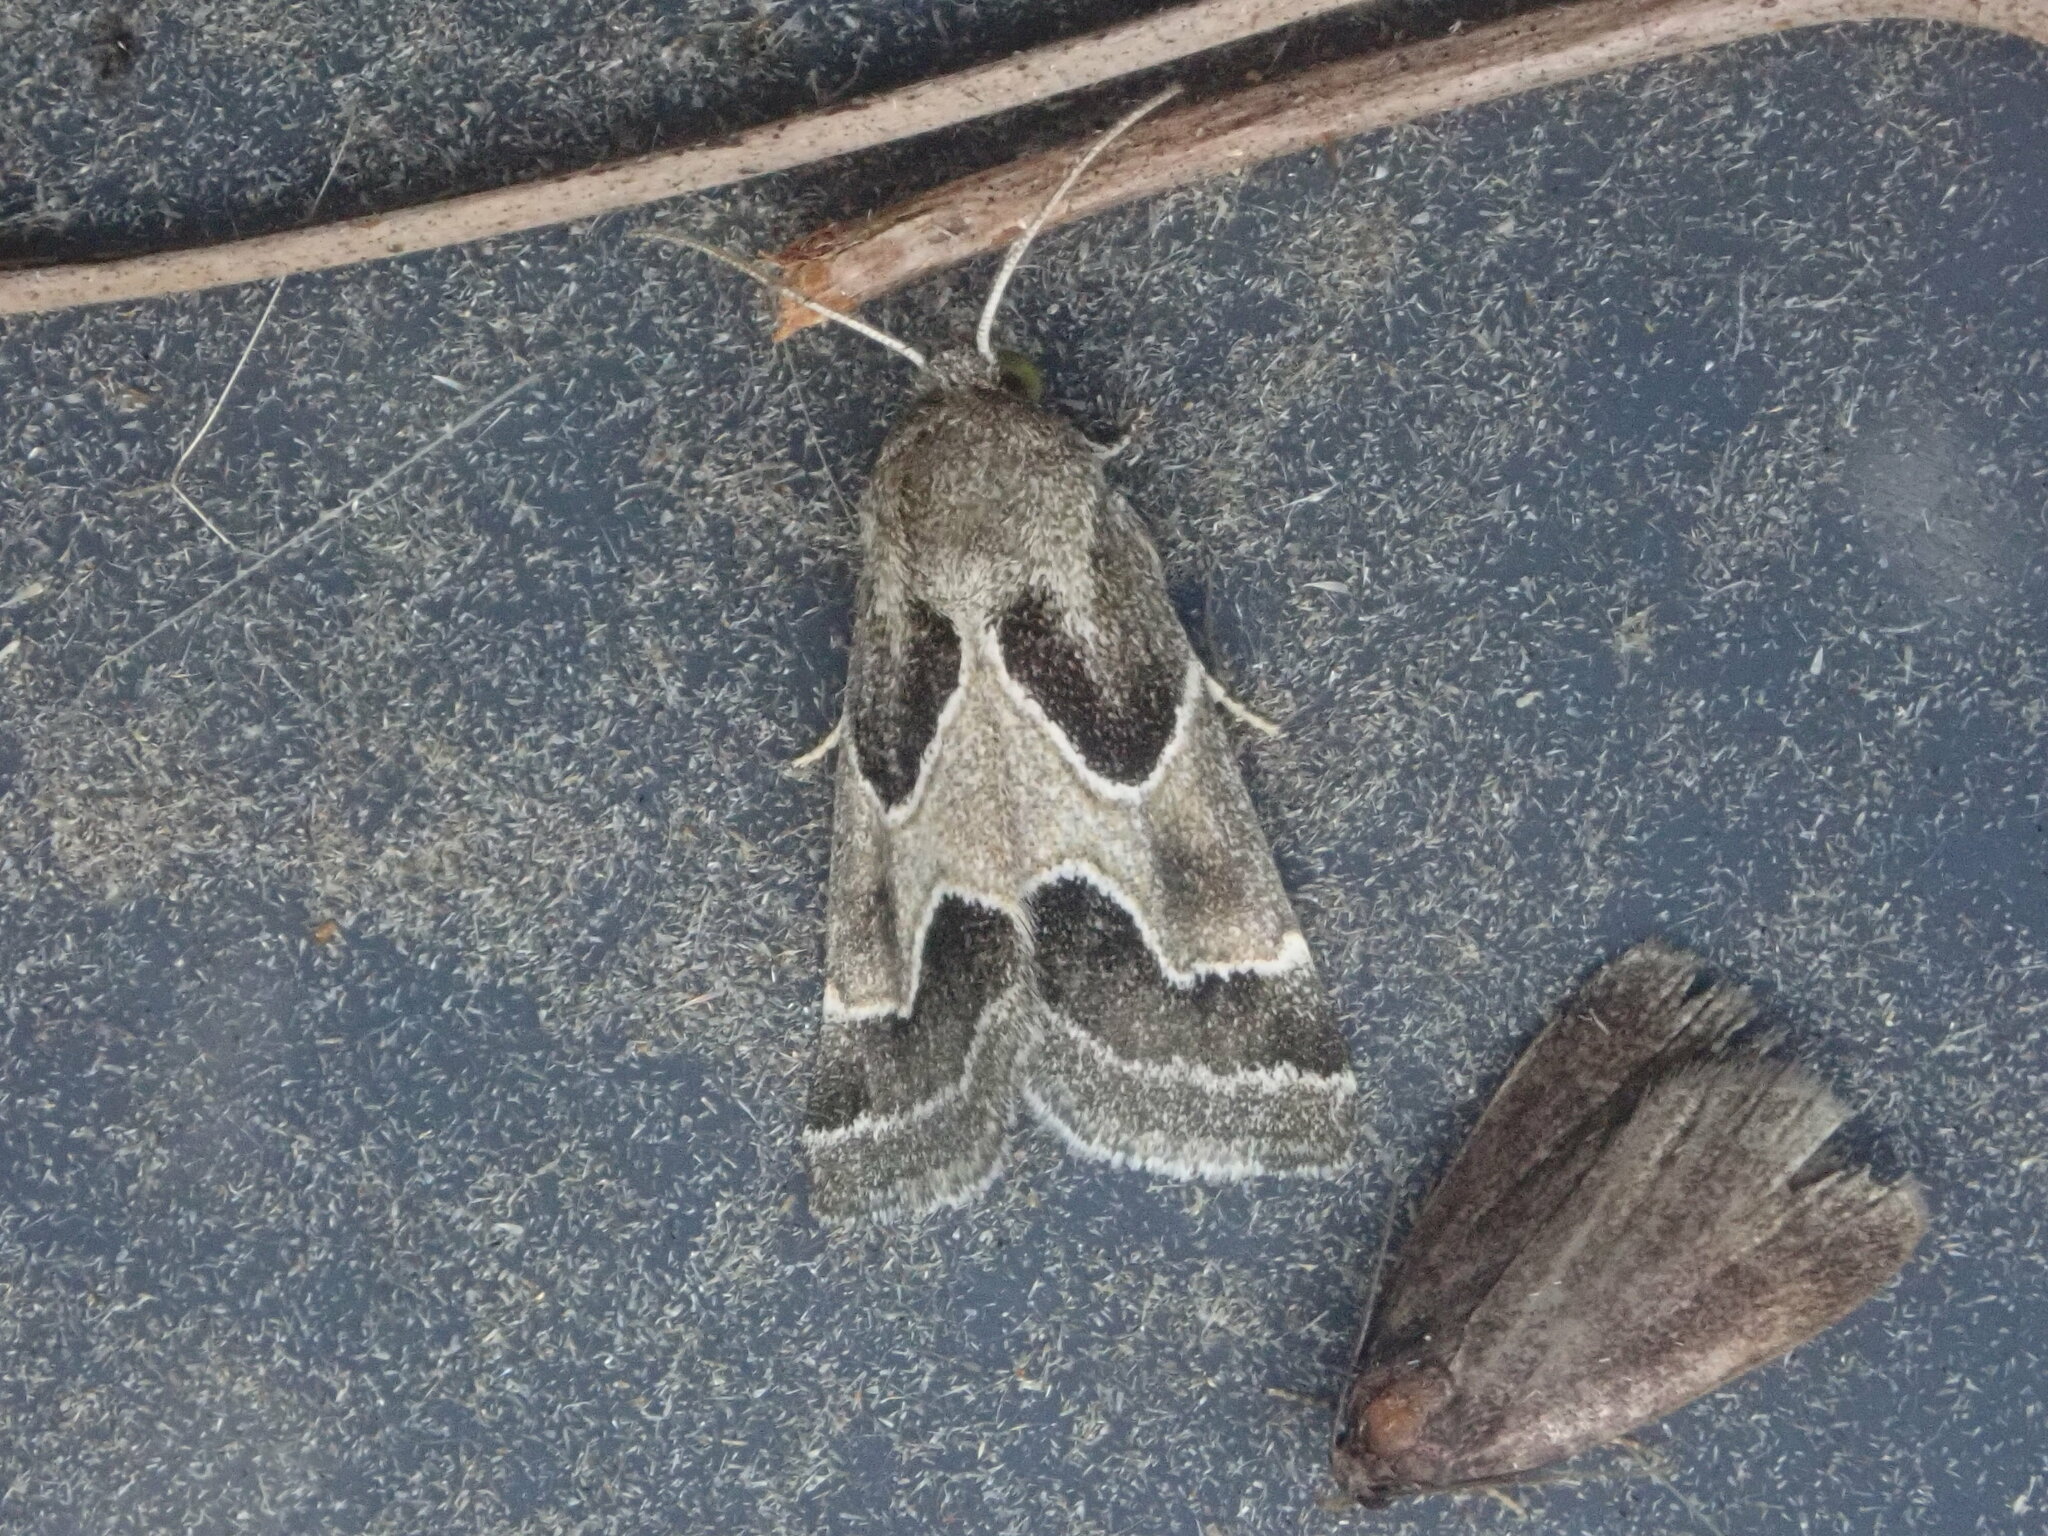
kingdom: Animalia
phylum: Arthropoda
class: Insecta
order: Lepidoptera
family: Noctuidae
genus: Schinia
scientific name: Schinia rivulosa
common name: Scarce meal-moth
